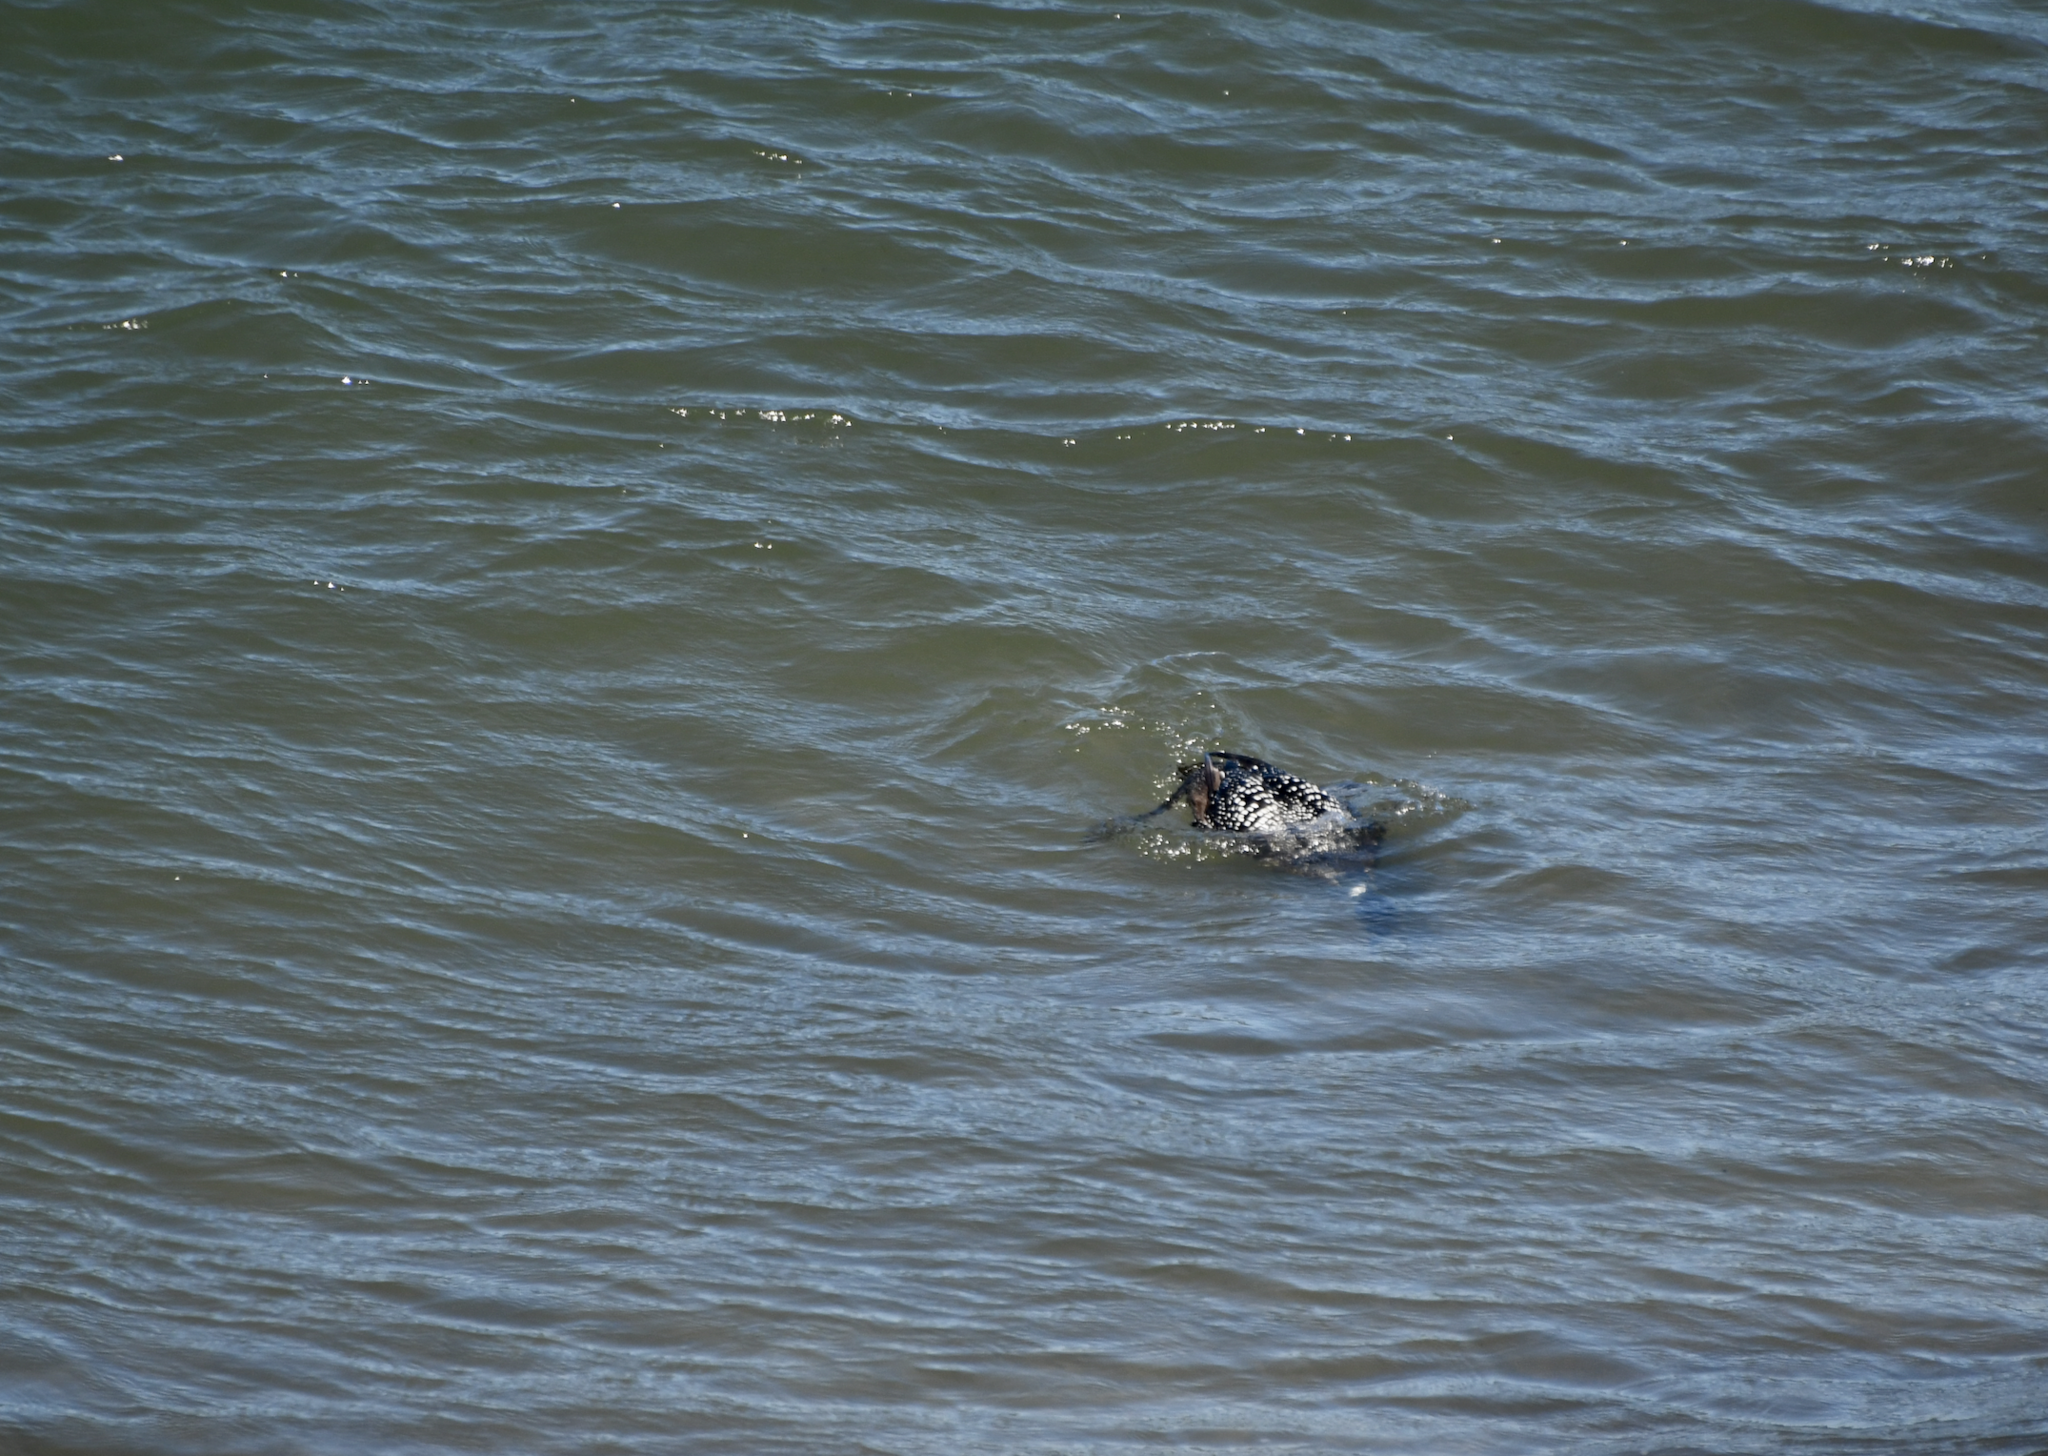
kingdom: Animalia
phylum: Chordata
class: Aves
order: Gaviiformes
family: Gaviidae
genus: Gavia
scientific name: Gavia immer
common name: Common loon
